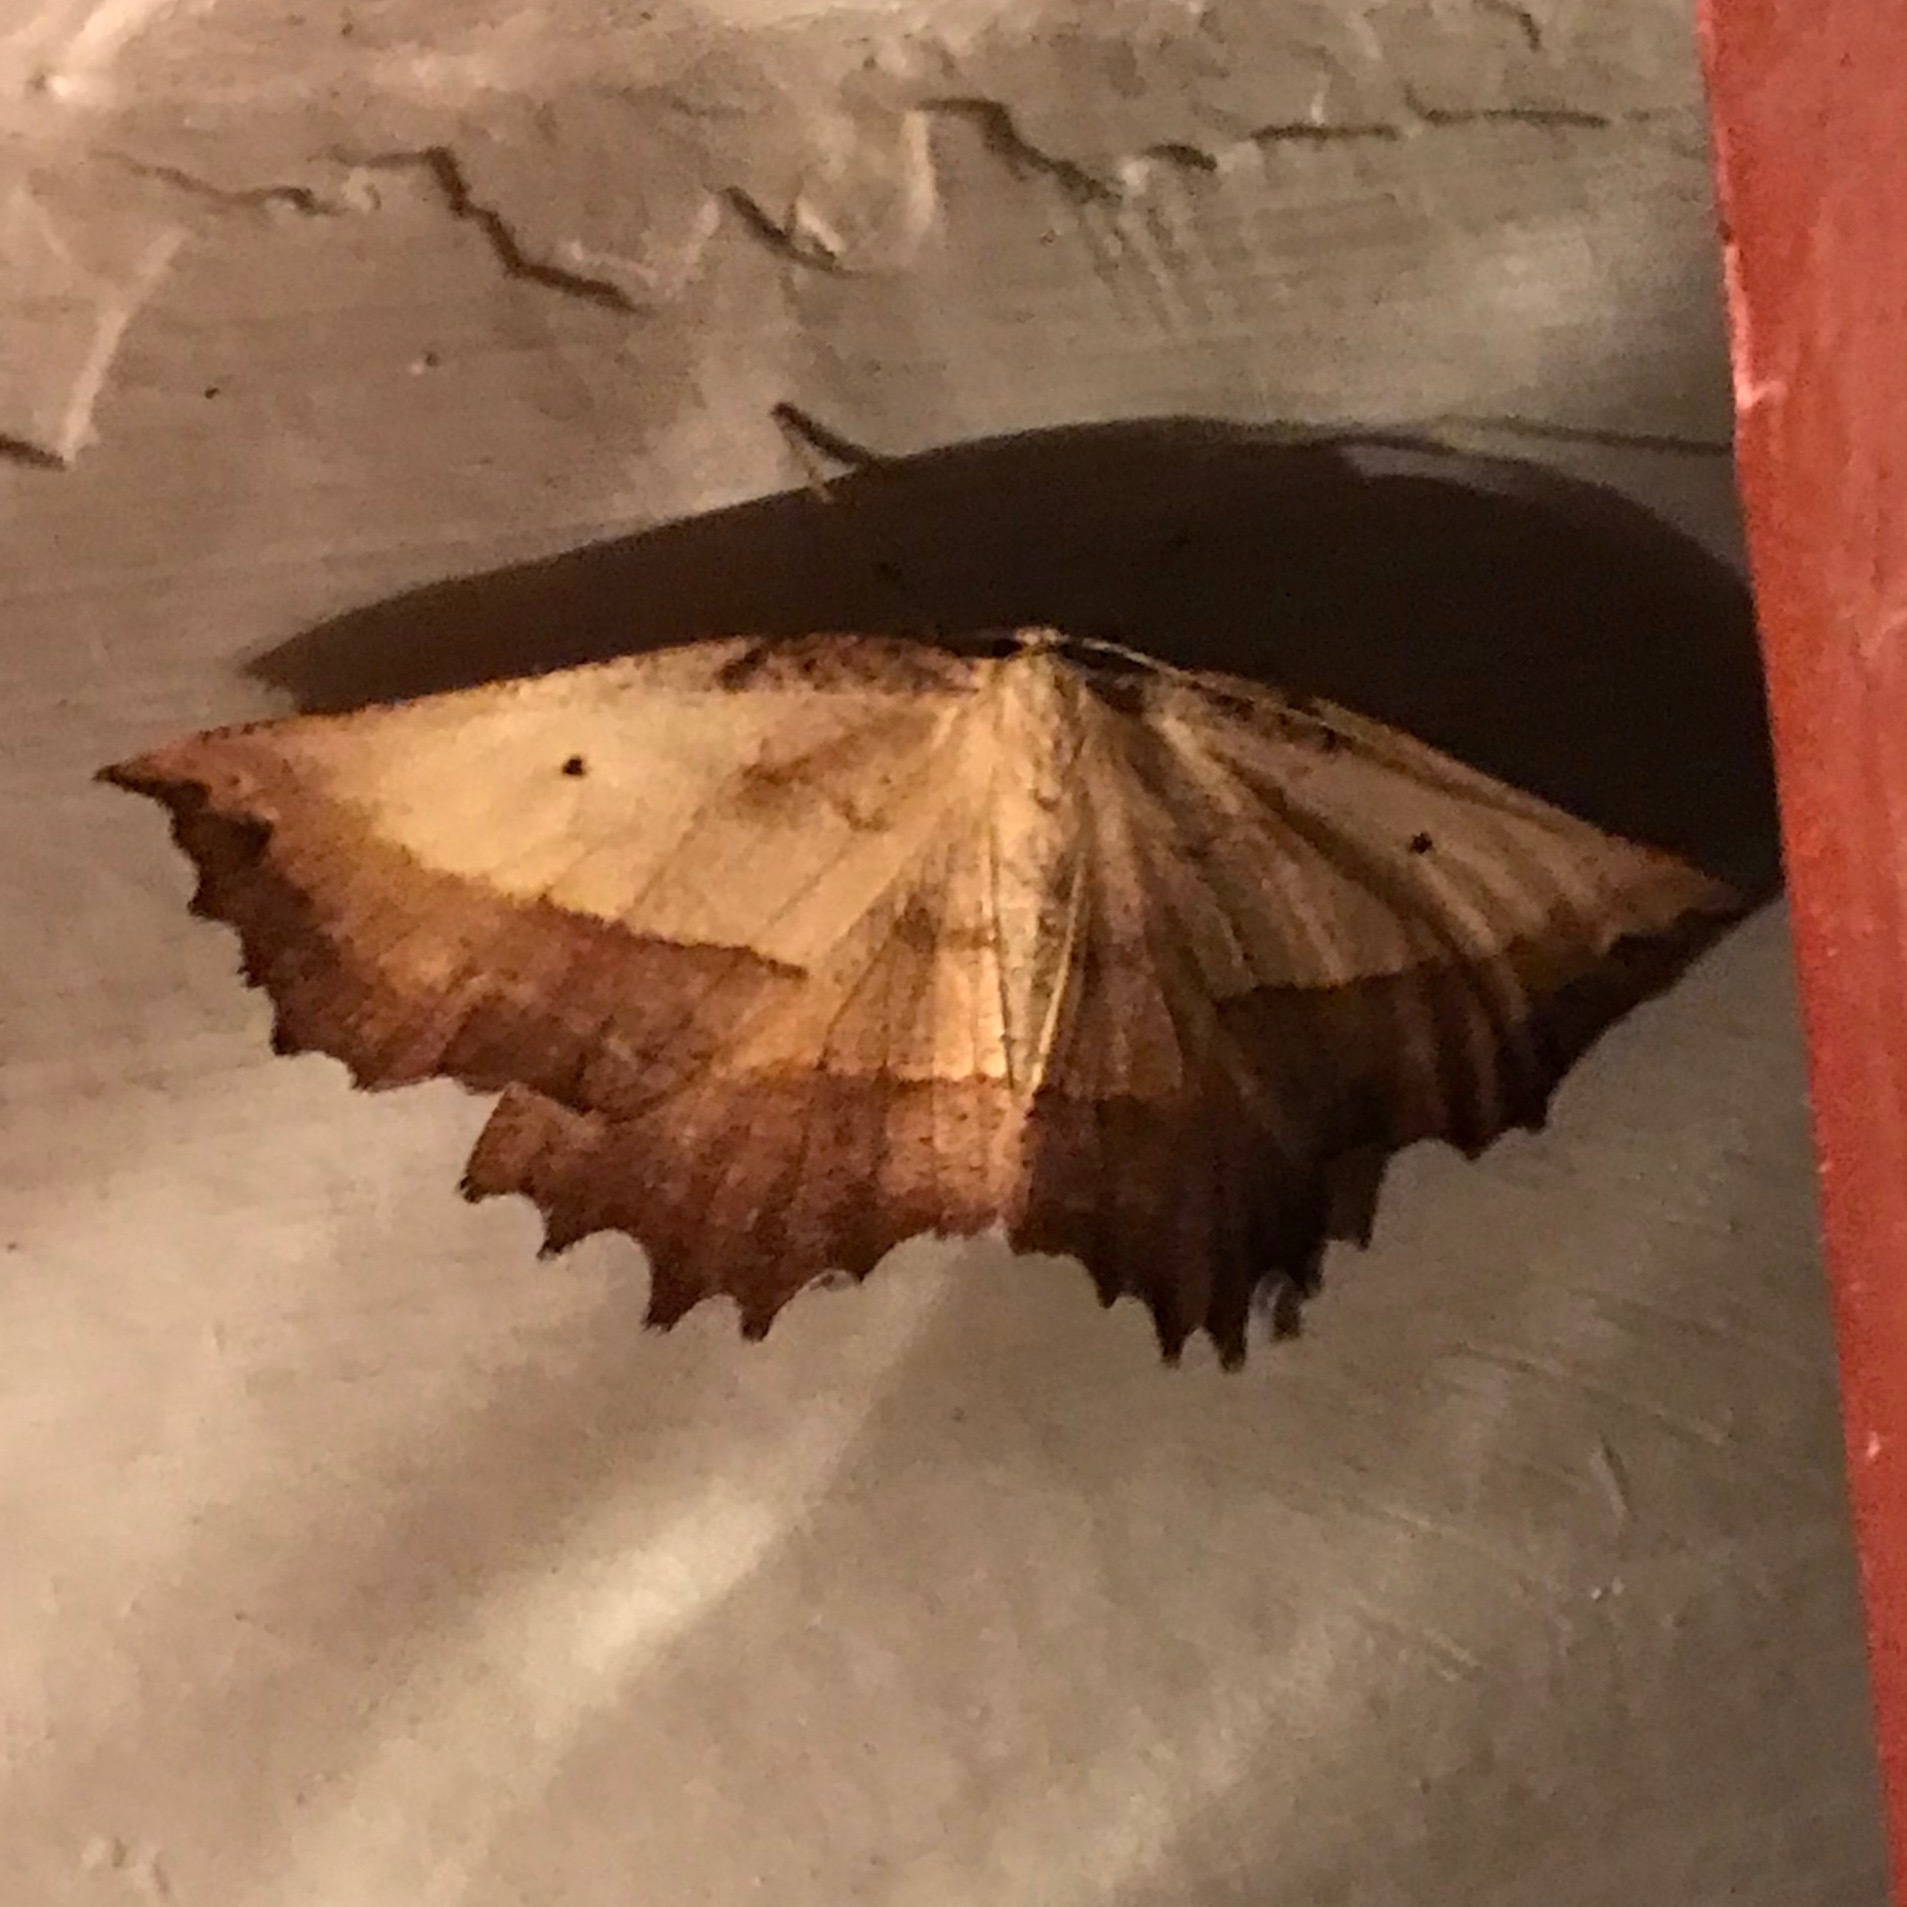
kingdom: Animalia
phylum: Arthropoda
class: Insecta
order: Lepidoptera
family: Geometridae
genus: Euchlaena
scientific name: Euchlaena serrata
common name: Saw wing
